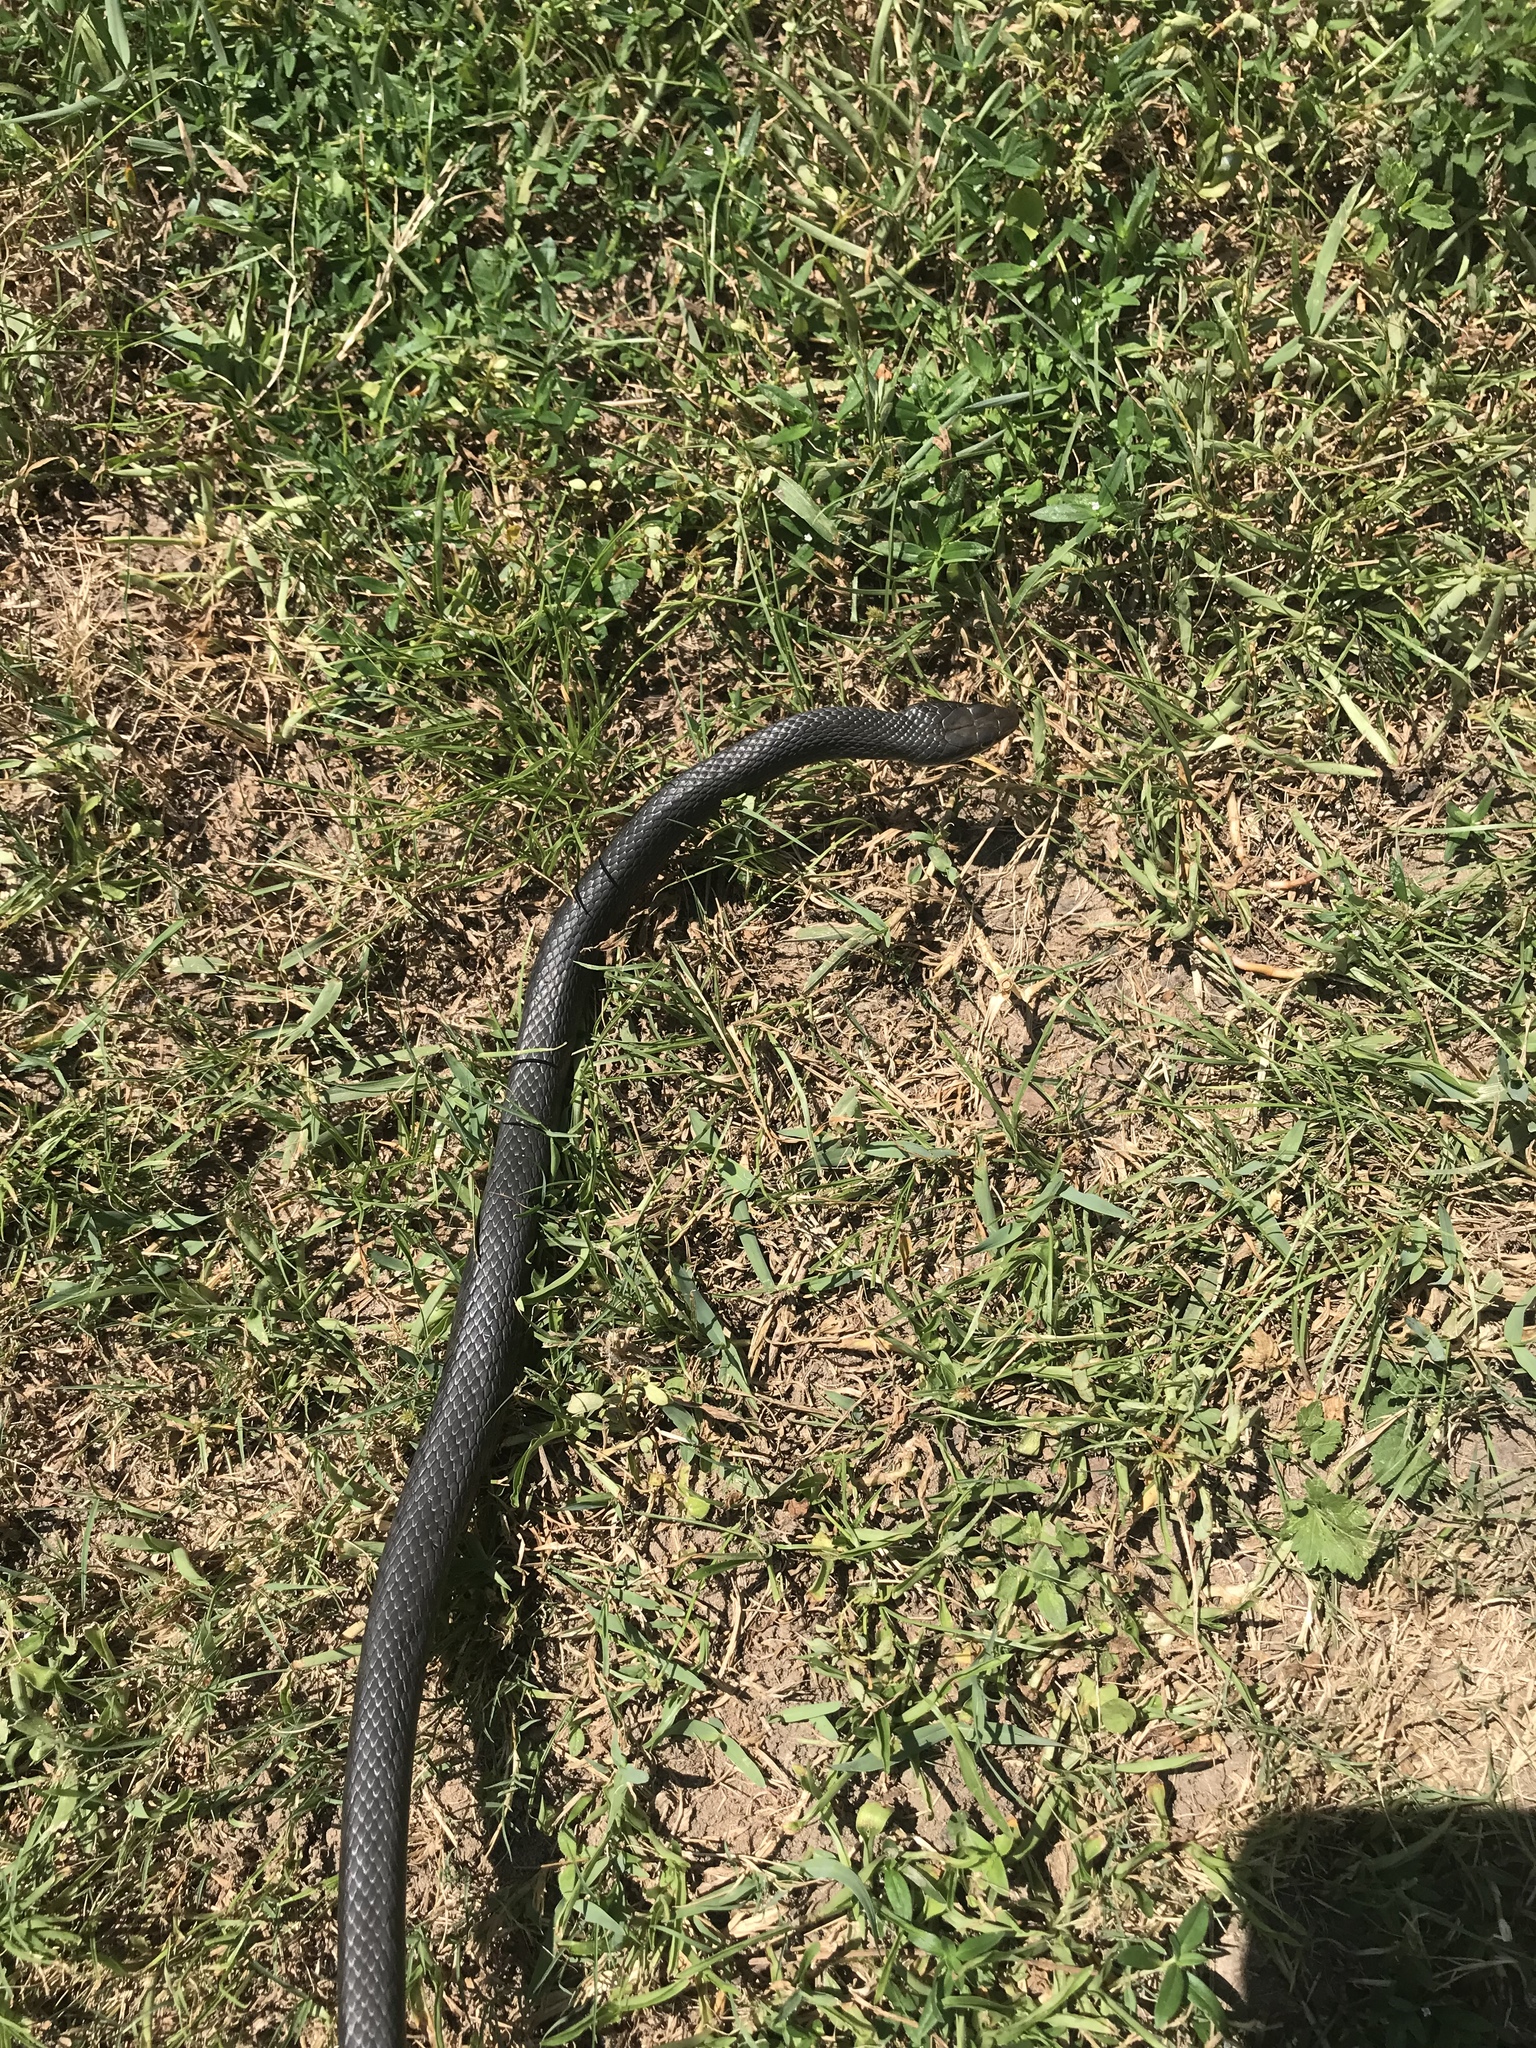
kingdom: Animalia
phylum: Chordata
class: Squamata
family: Colubridae
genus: Coluber
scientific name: Coluber constrictor
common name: Eastern racer
